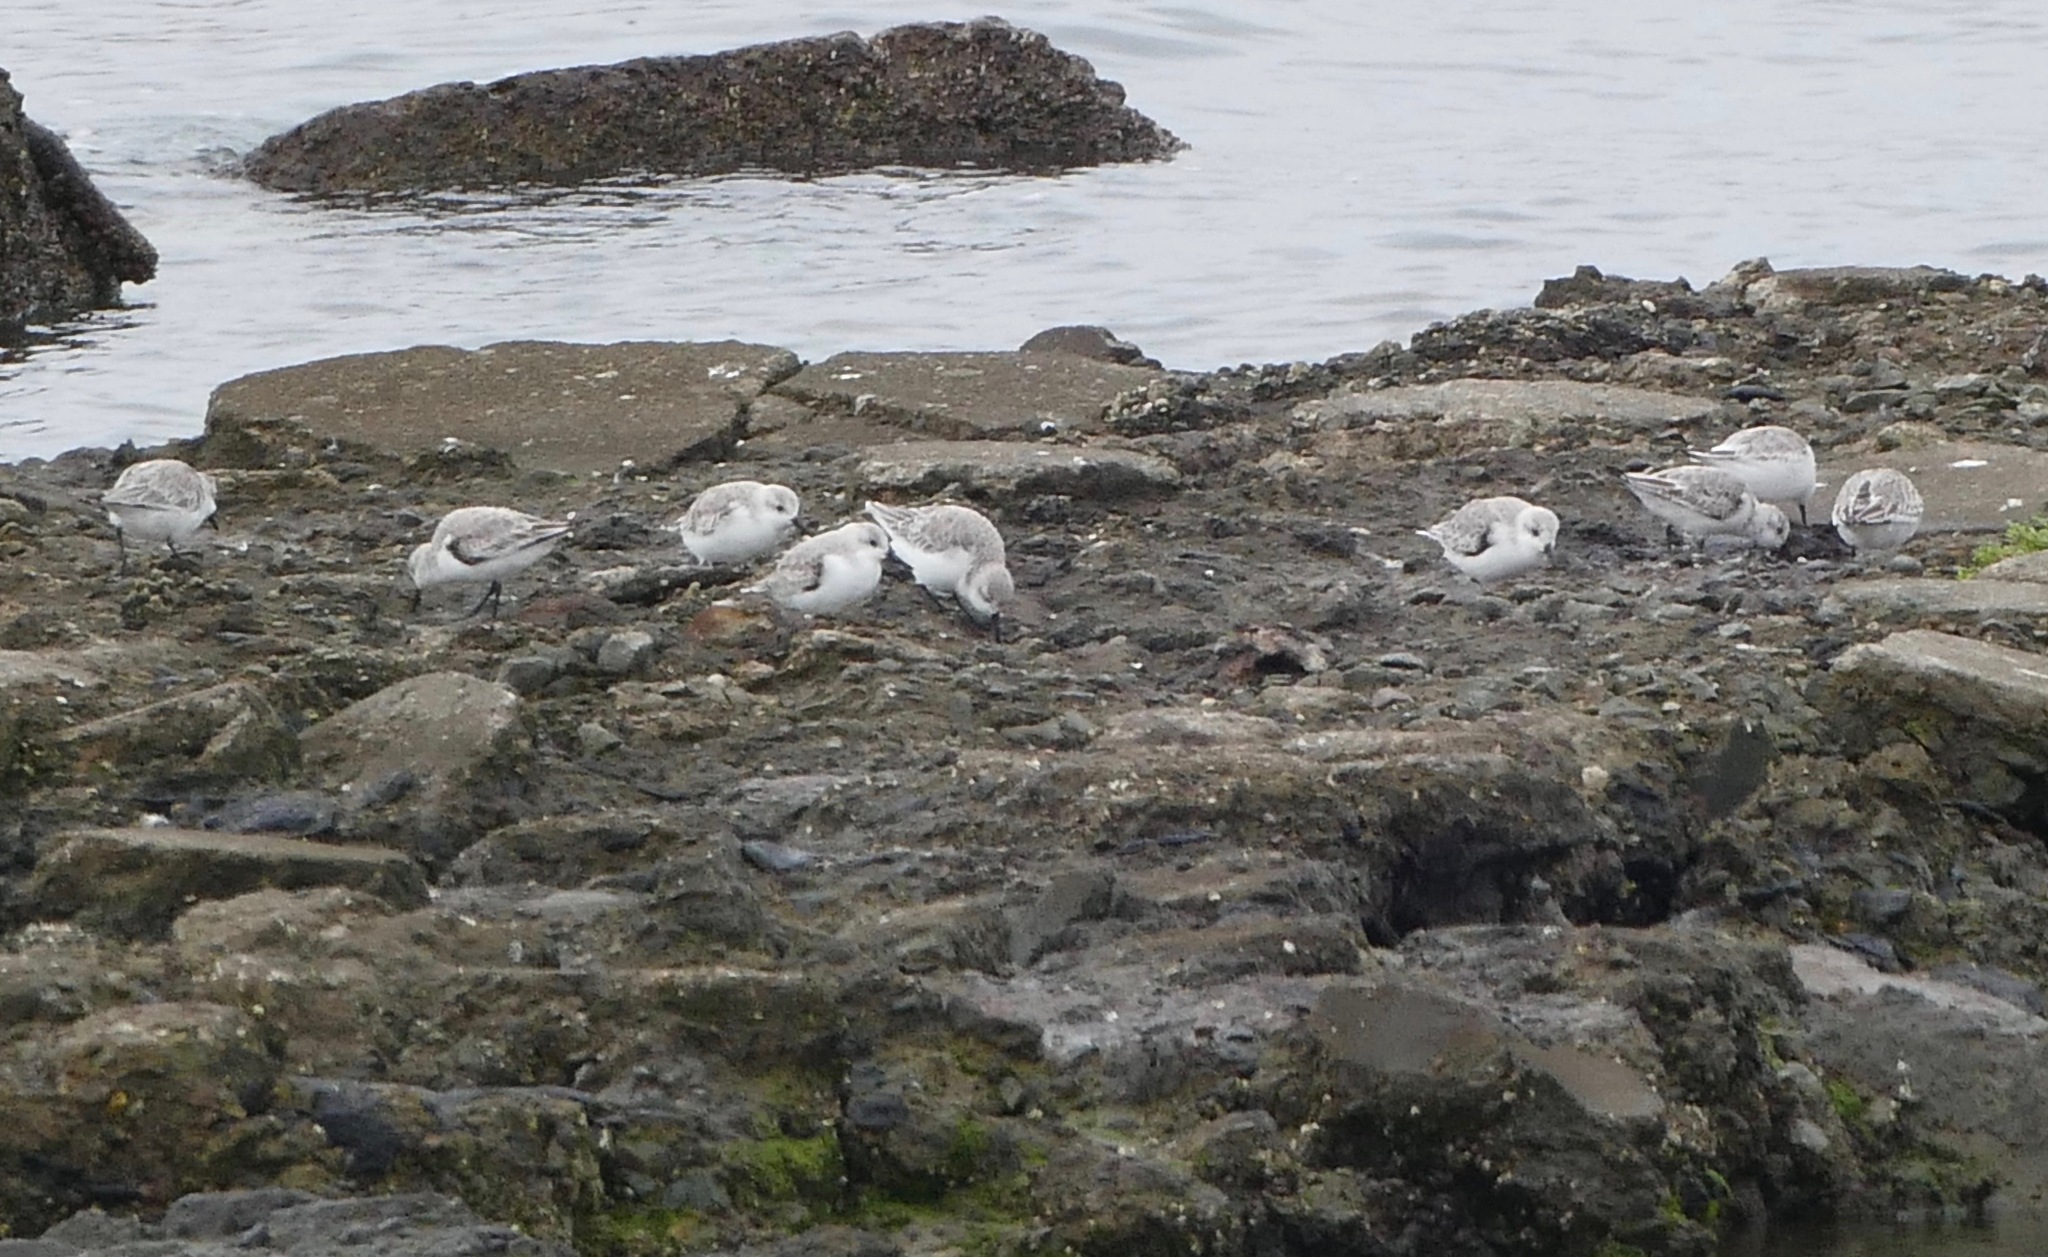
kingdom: Animalia
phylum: Chordata
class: Aves
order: Charadriiformes
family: Scolopacidae
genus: Calidris
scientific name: Calidris alba
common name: Sanderling
